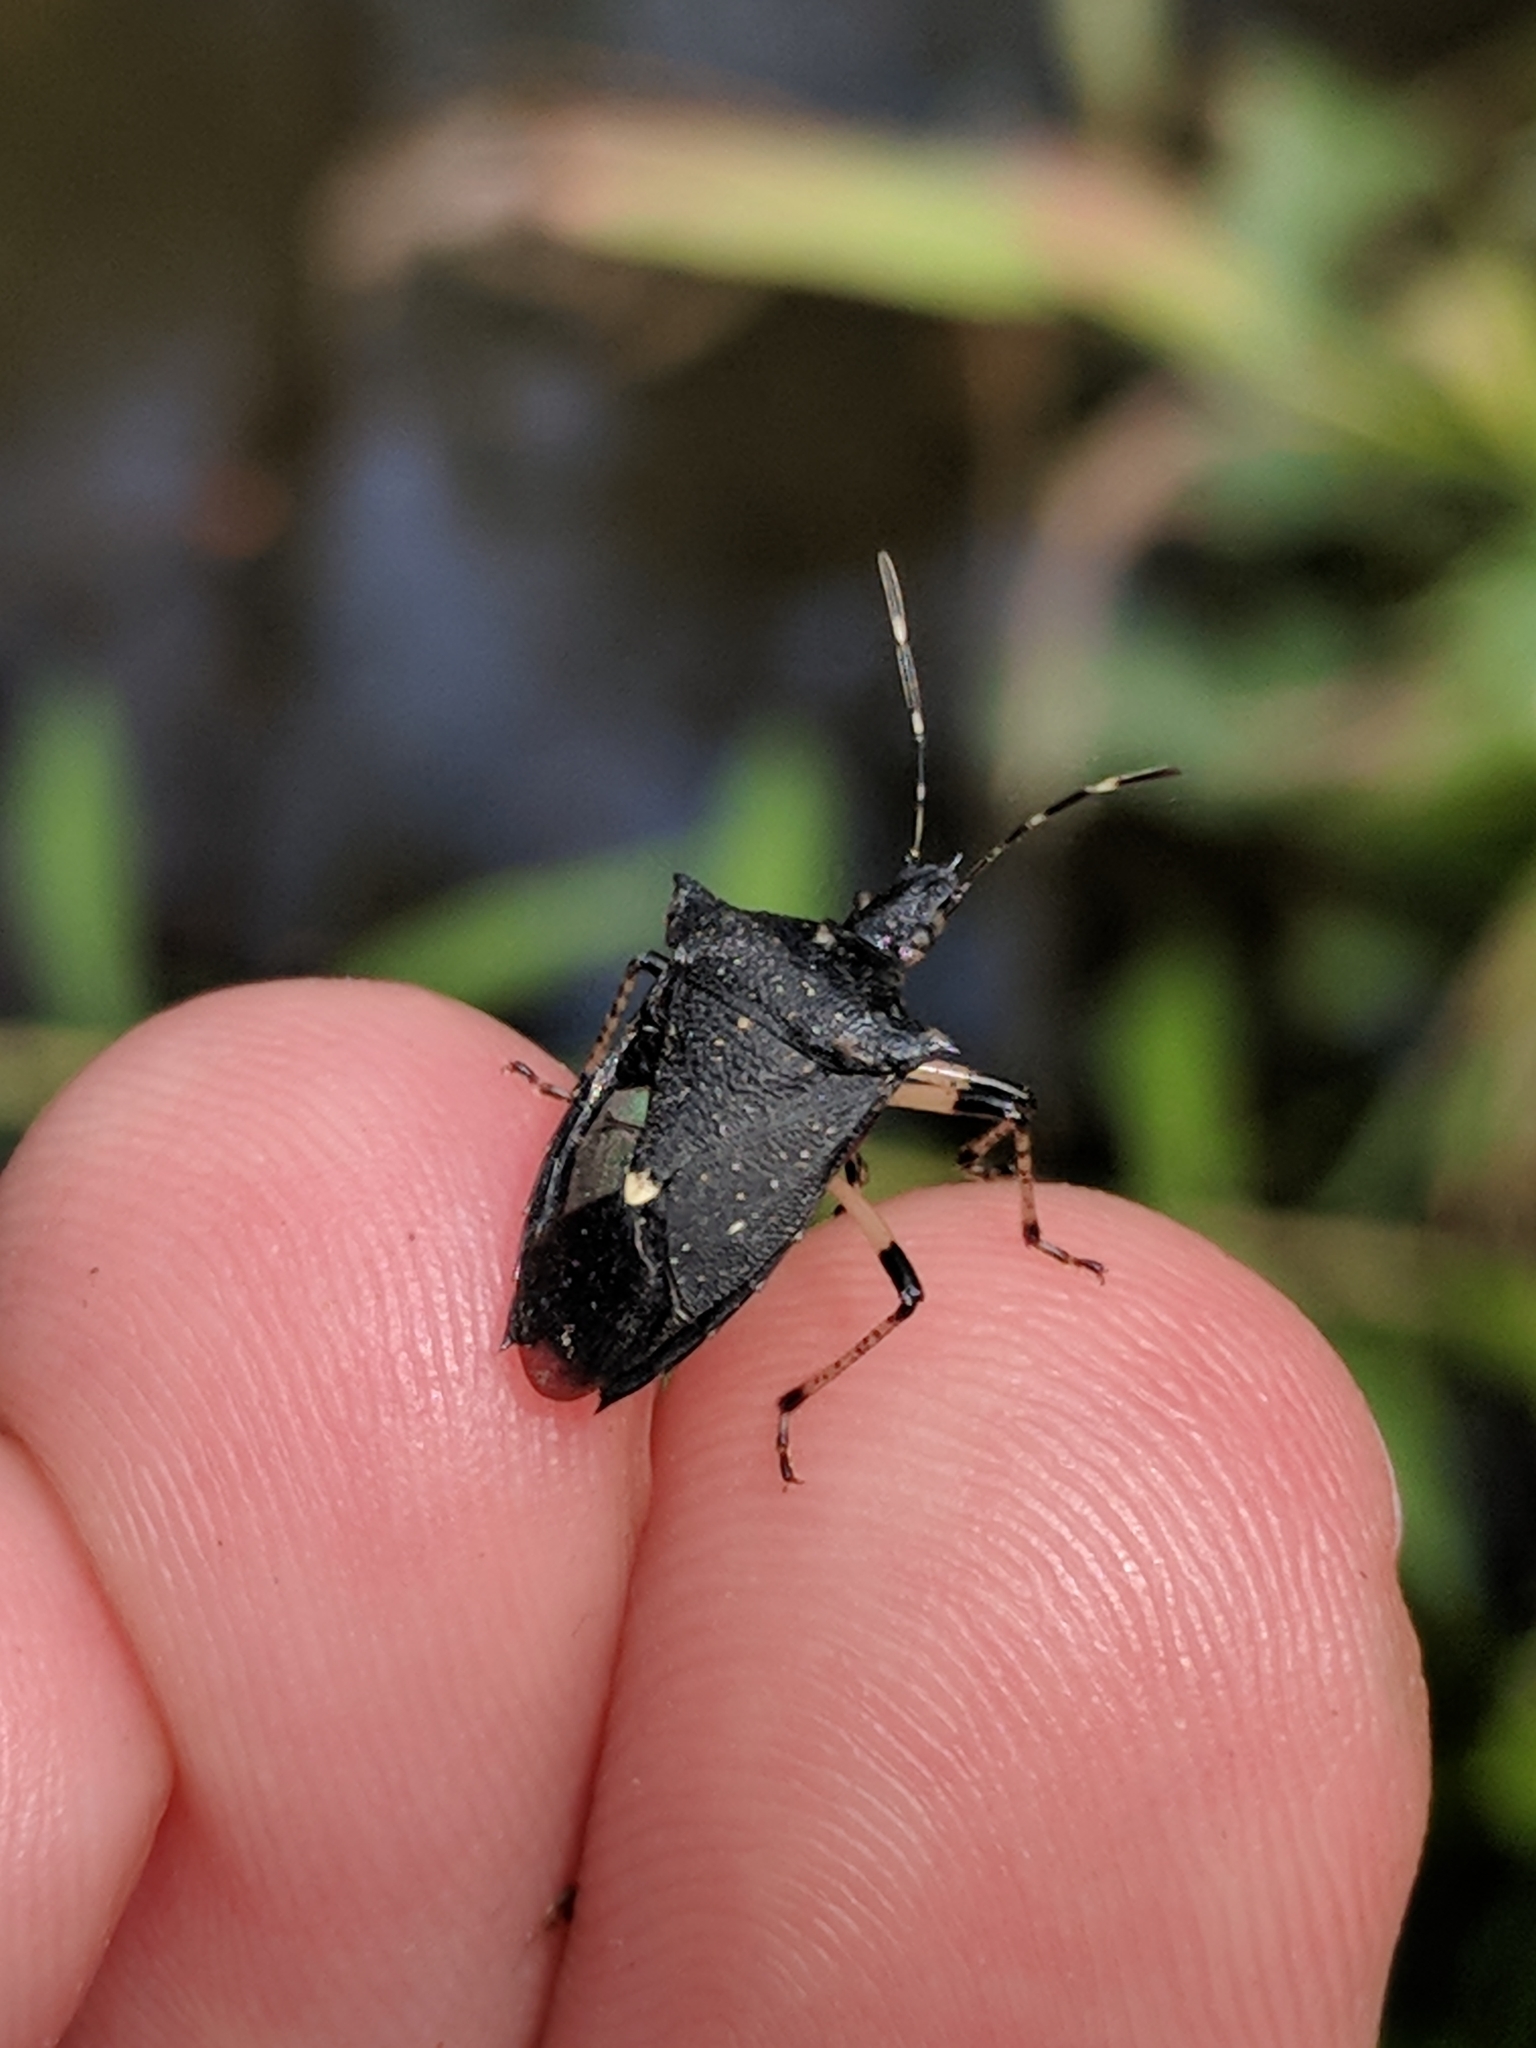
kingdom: Animalia
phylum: Arthropoda
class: Insecta
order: Hemiptera
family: Pentatomidae
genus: Proxys
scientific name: Proxys punctulatus
